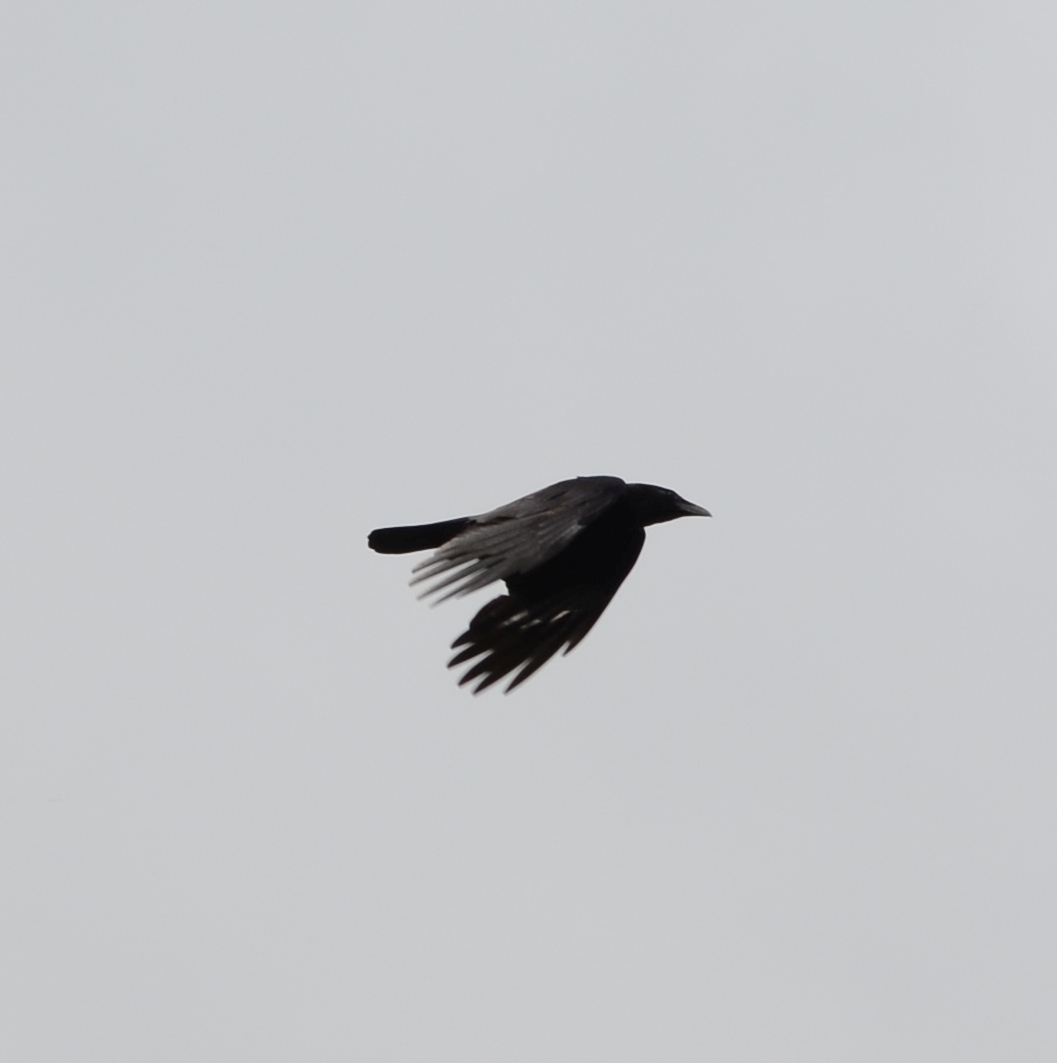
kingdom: Animalia
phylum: Chordata
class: Aves
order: Passeriformes
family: Corvidae
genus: Corvus
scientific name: Corvus corone
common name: Carrion crow
